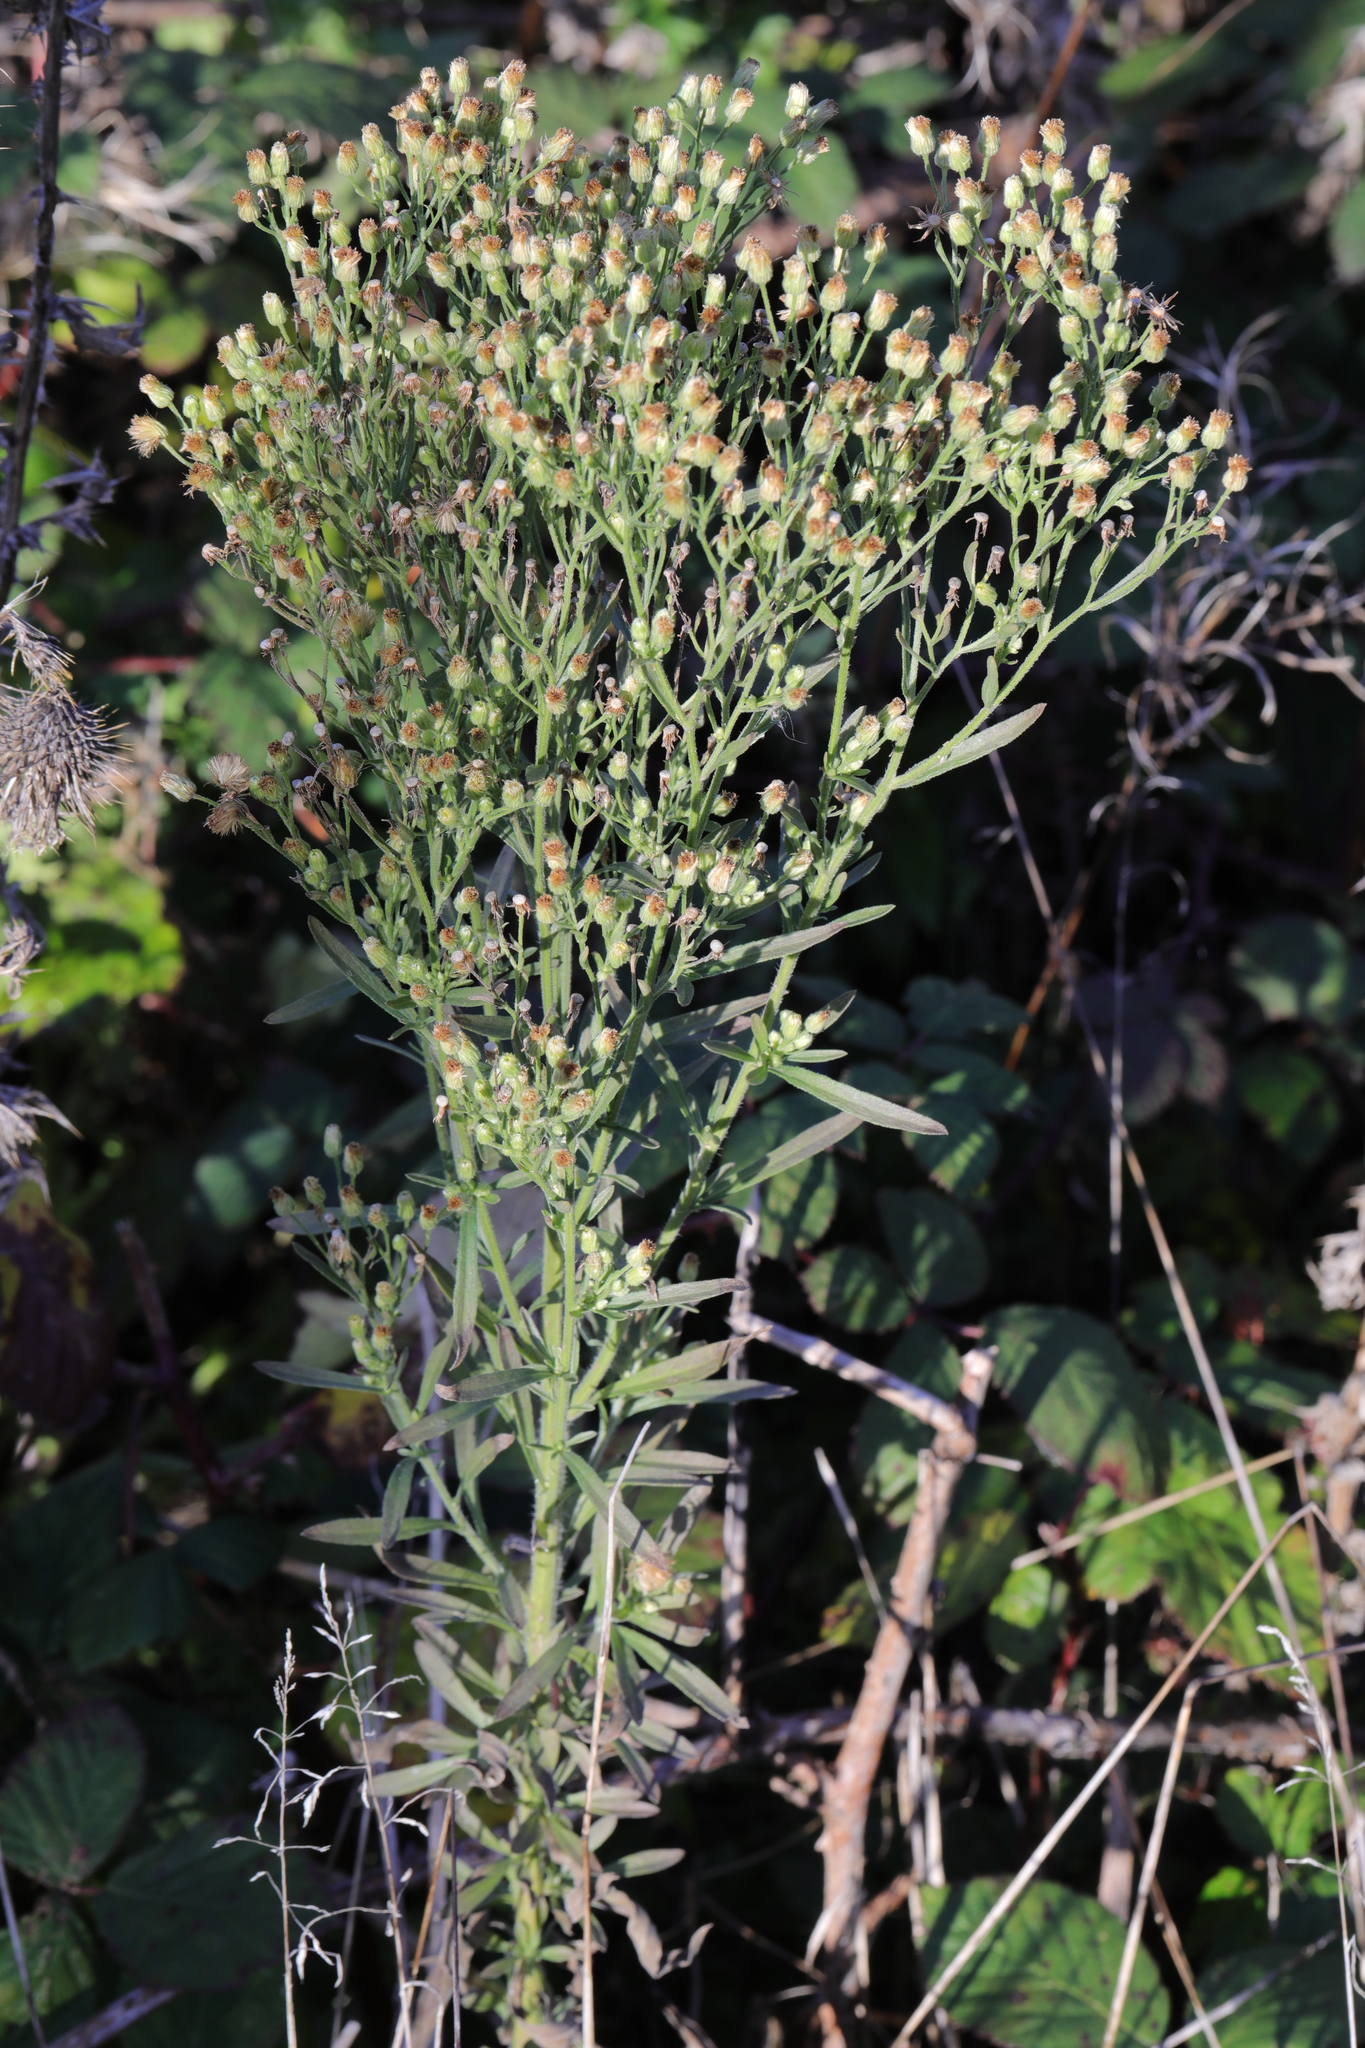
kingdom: Plantae
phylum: Tracheophyta
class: Magnoliopsida
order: Asterales
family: Asteraceae
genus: Erigeron
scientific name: Erigeron canadensis
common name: Canadian fleabane
